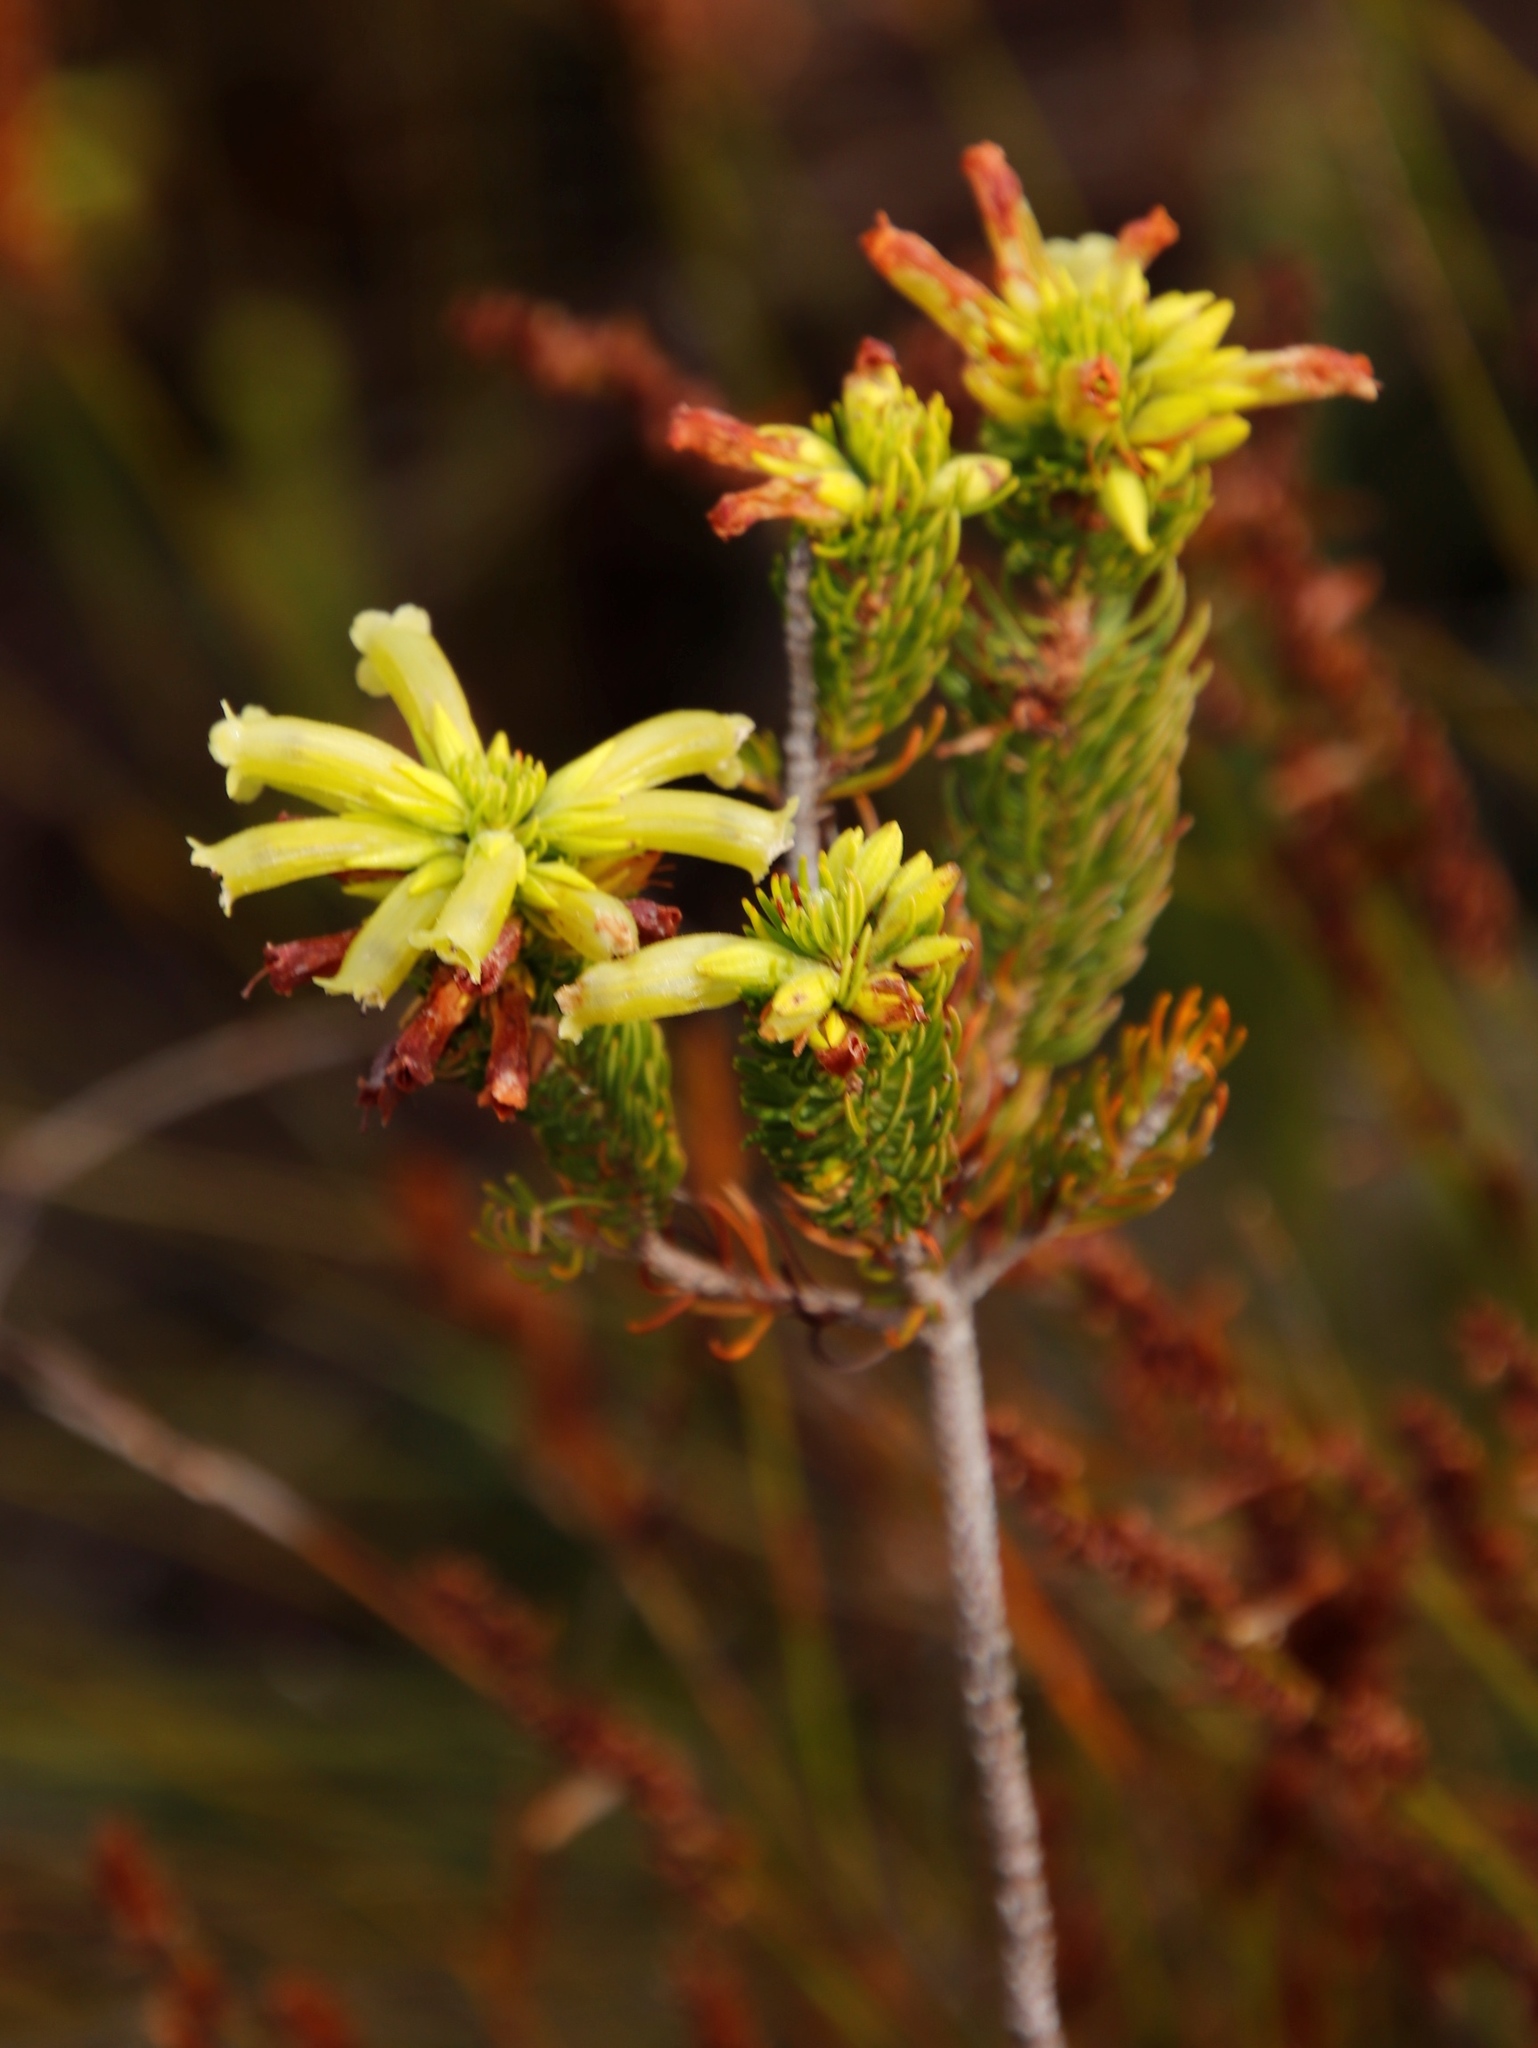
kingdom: Plantae
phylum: Tracheophyta
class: Magnoliopsida
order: Ericales
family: Ericaceae
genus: Erica
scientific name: Erica viscaria
